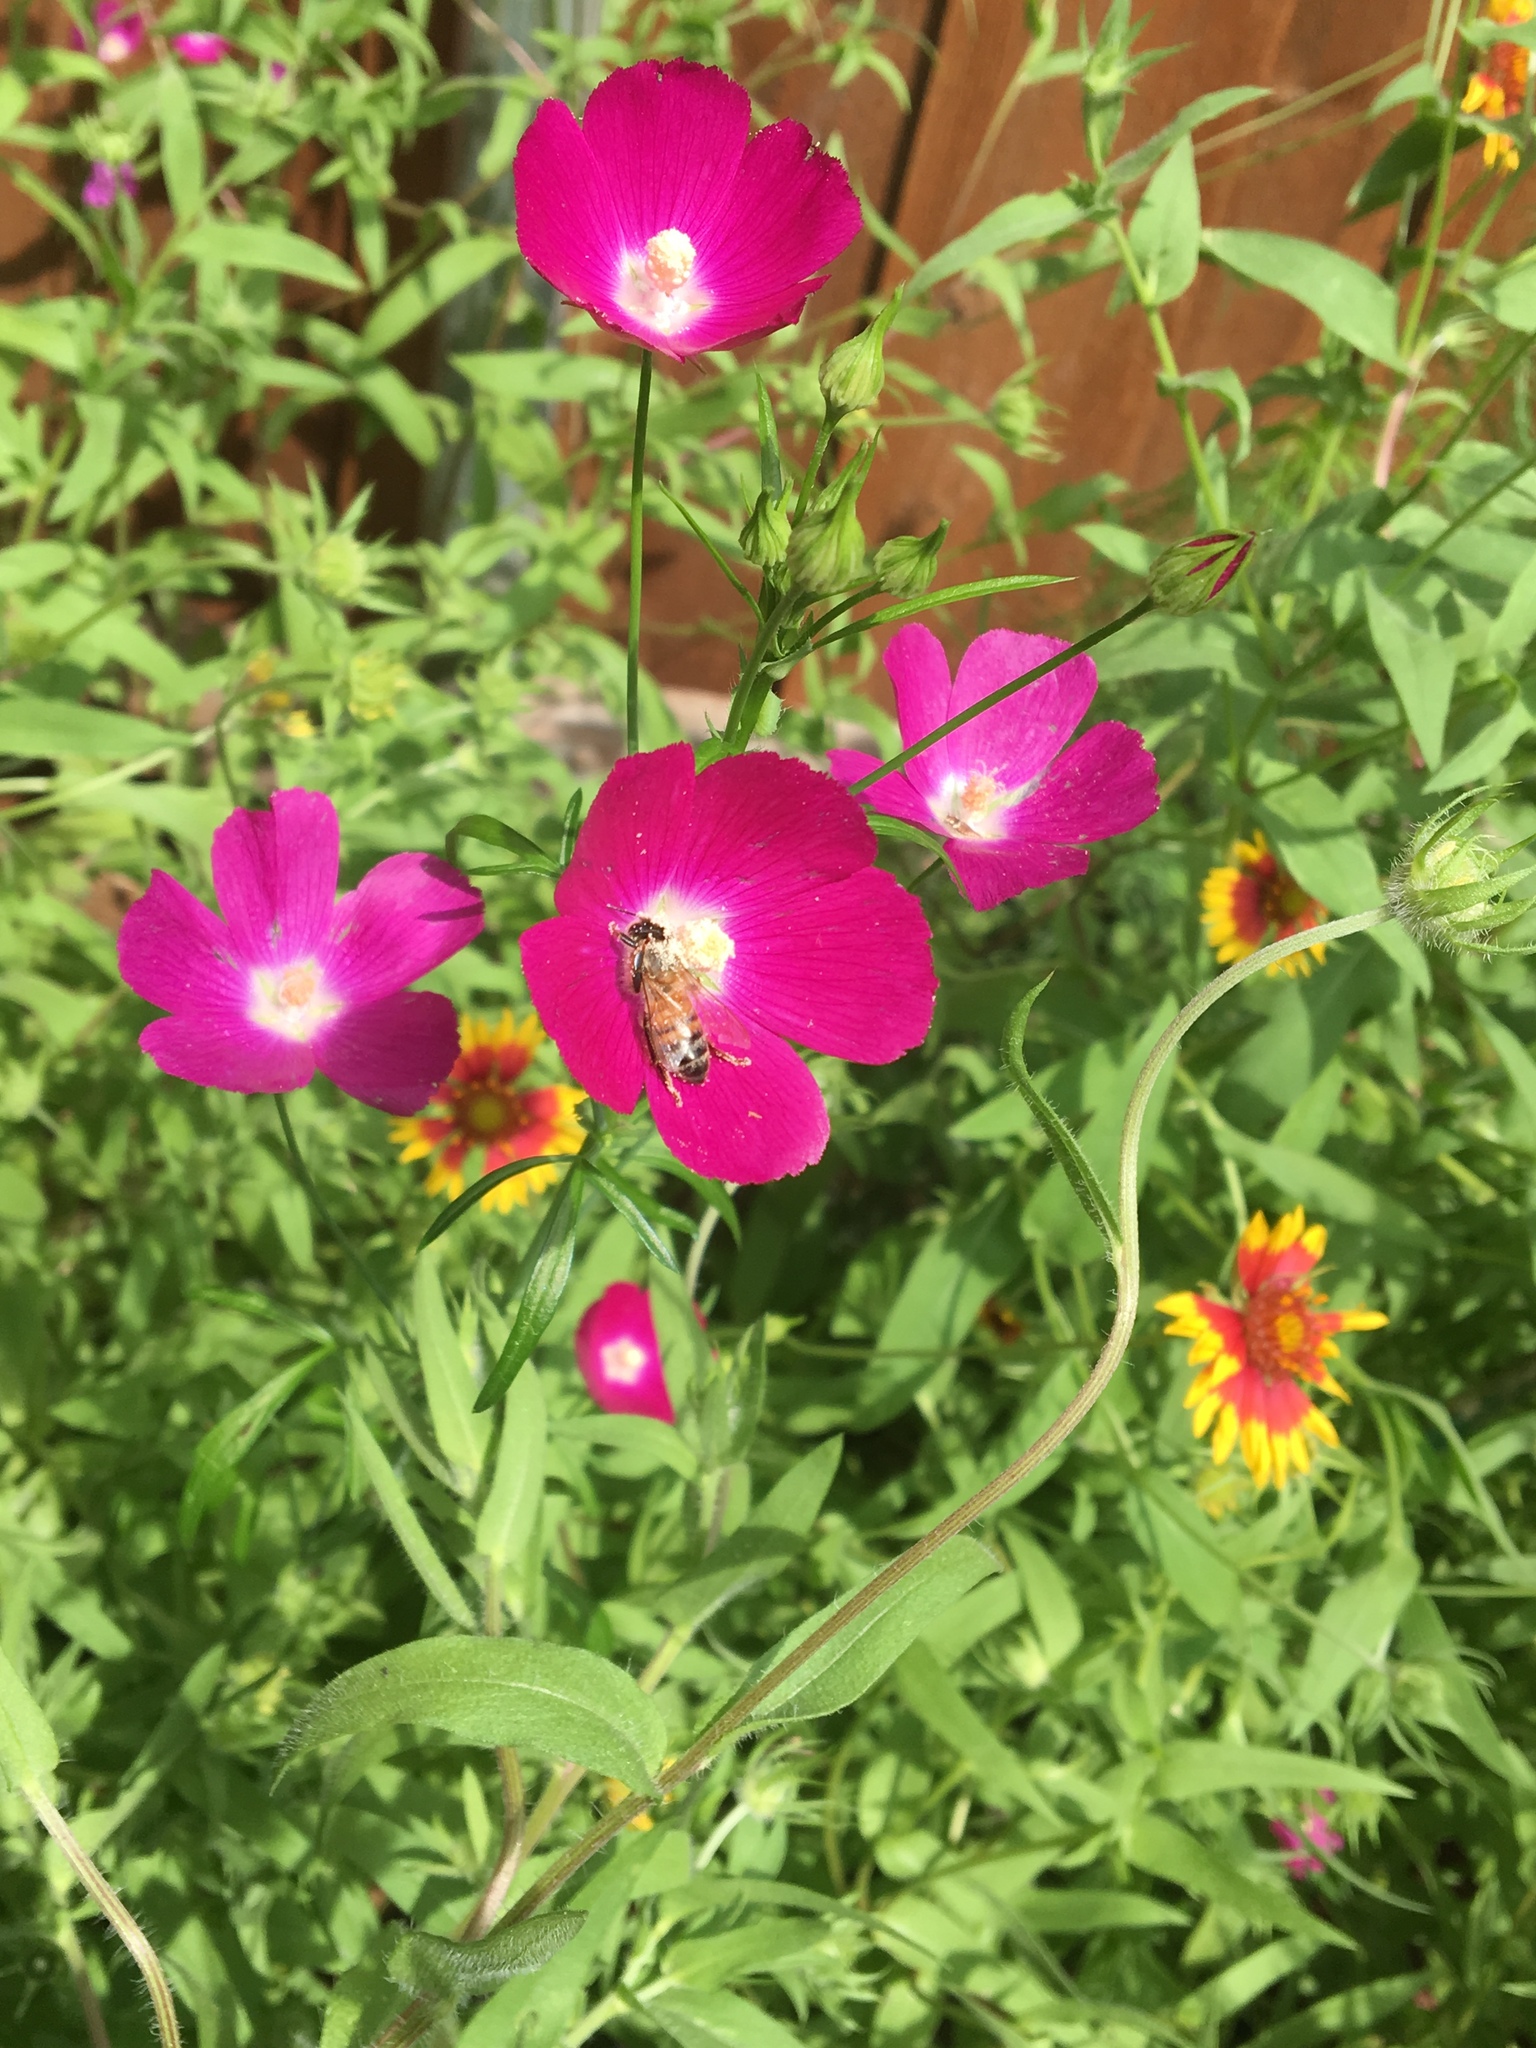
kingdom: Animalia
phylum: Arthropoda
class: Insecta
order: Hymenoptera
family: Apidae
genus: Apis
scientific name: Apis mellifera
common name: Honey bee
